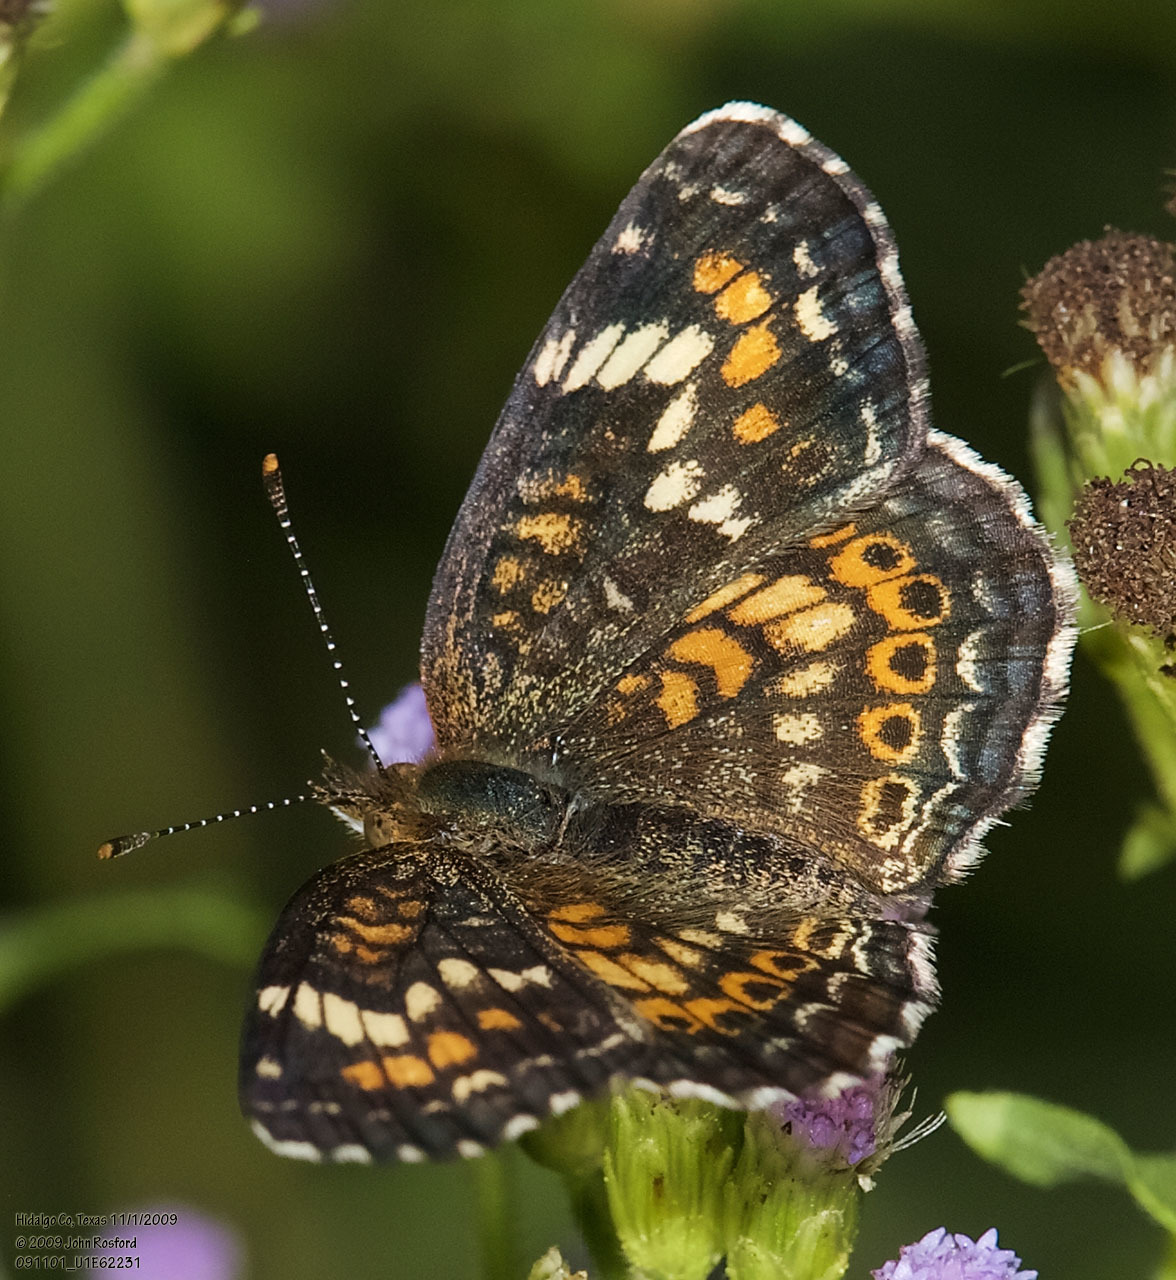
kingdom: Animalia
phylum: Arthropoda
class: Insecta
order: Lepidoptera
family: Nymphalidae
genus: Phyciodes
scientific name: Phyciodes phaon
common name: Phaon crescent
